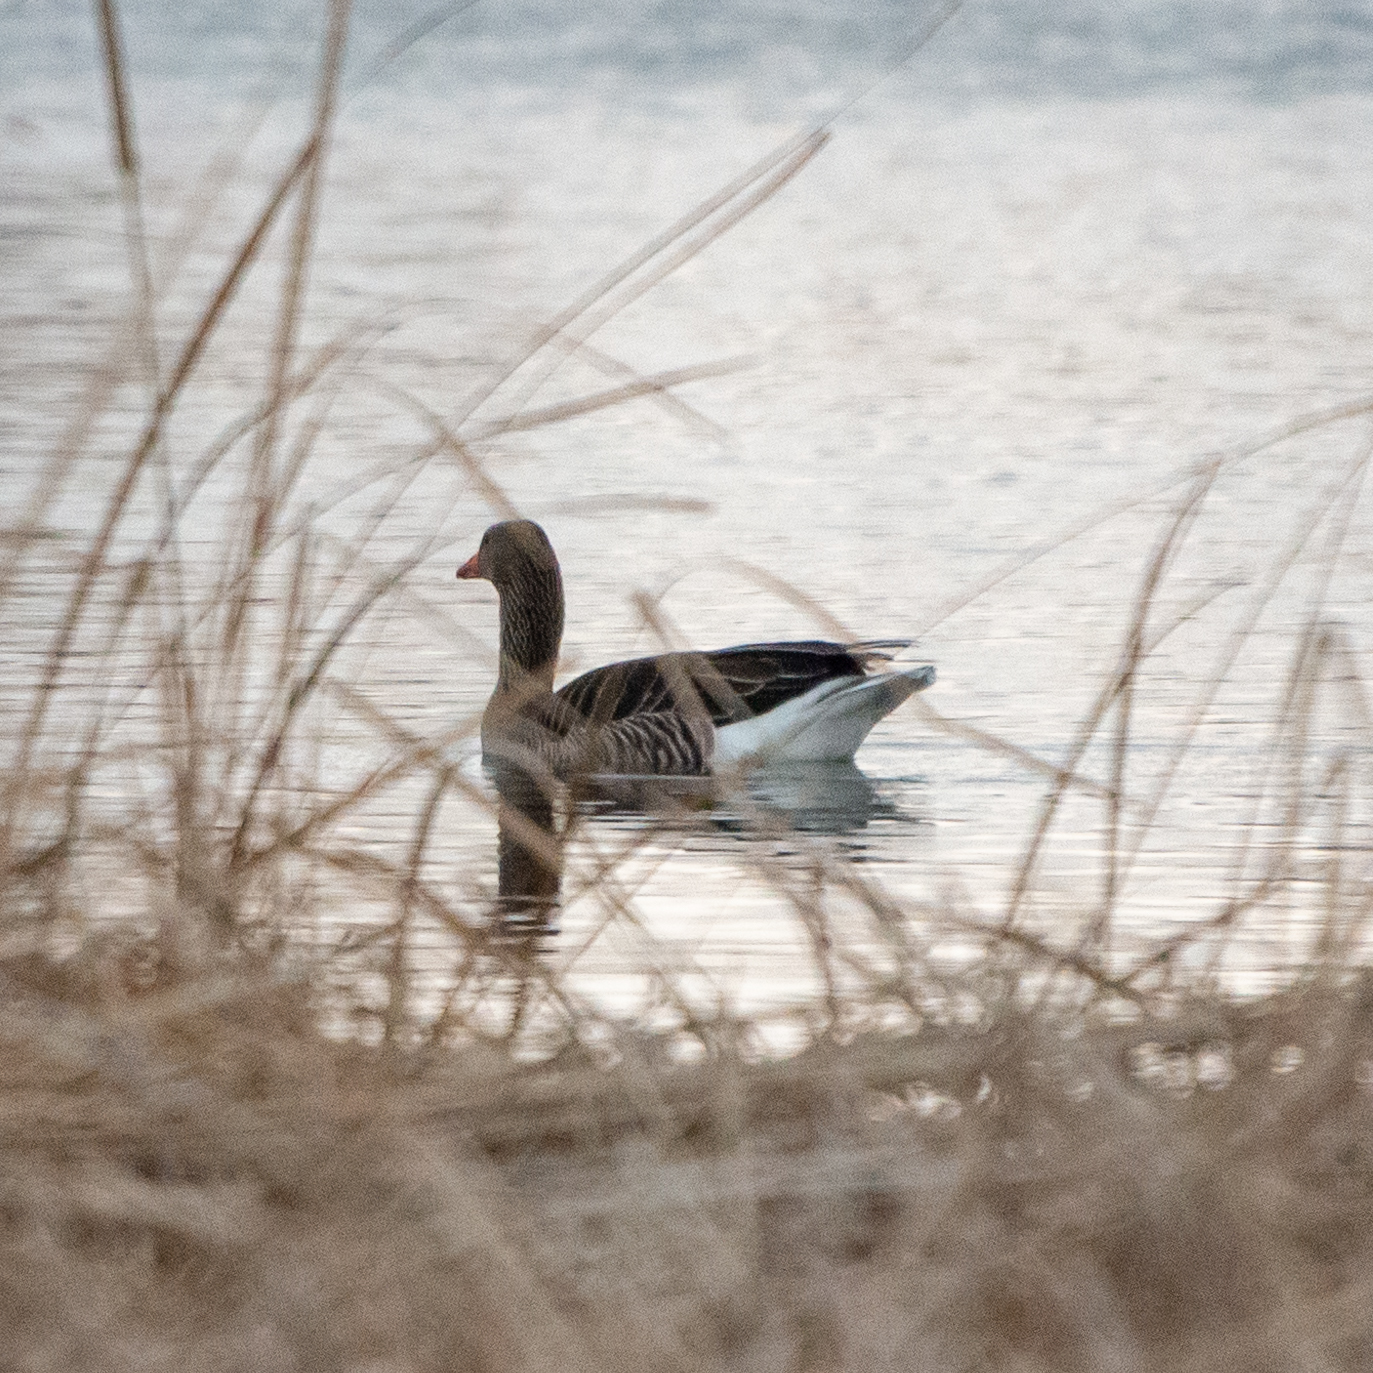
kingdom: Animalia
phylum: Chordata
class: Aves
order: Anseriformes
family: Anatidae
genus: Anser
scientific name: Anser anser
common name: Greylag goose
